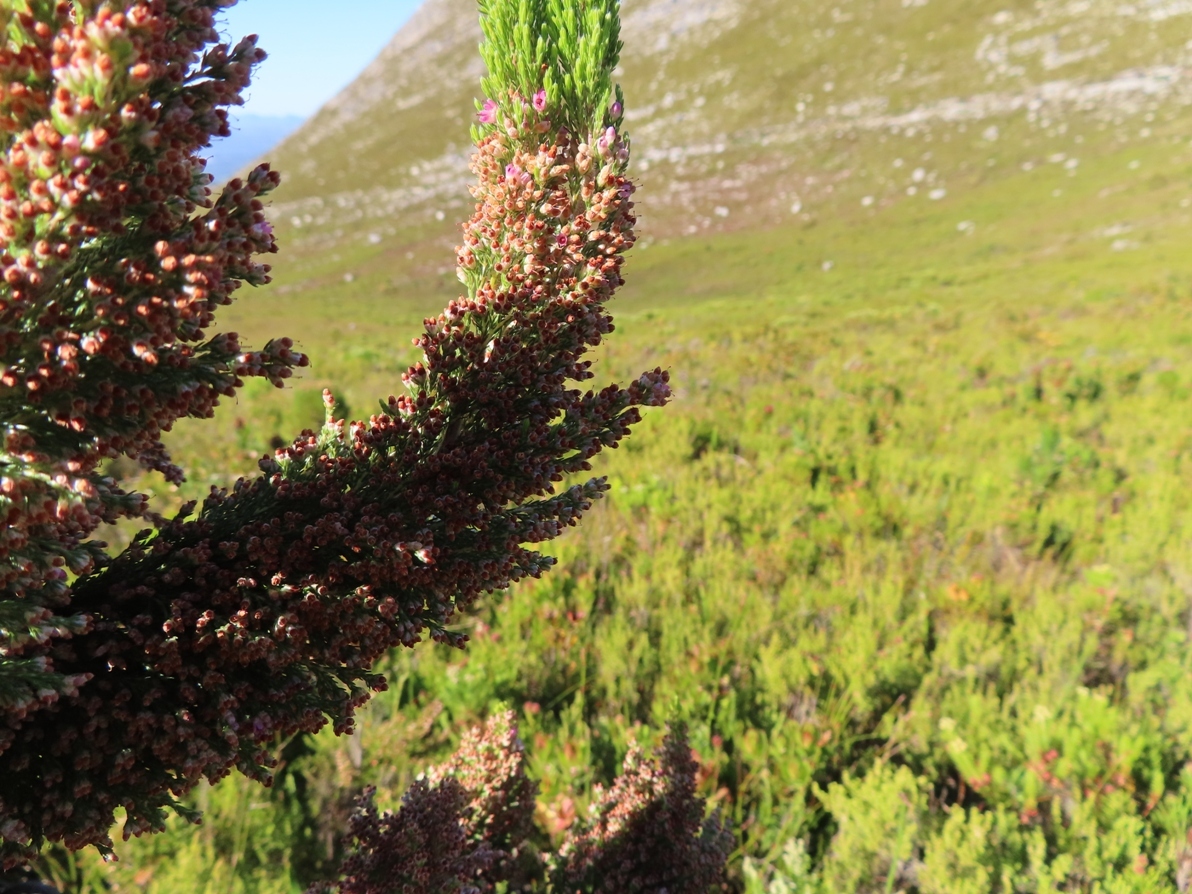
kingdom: Plantae
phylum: Tracheophyta
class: Magnoliopsida
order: Ericales
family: Ericaceae
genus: Erica
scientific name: Erica jacksoniana
